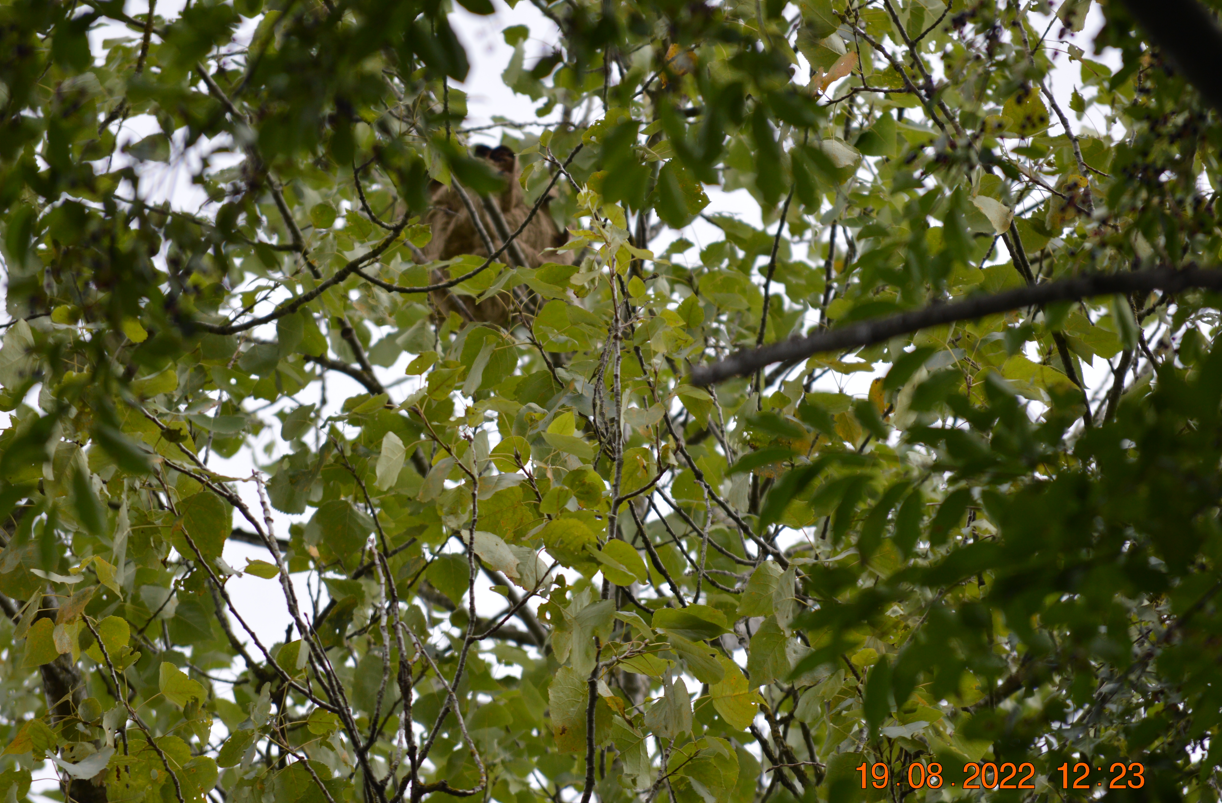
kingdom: Animalia
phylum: Arthropoda
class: Insecta
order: Hymenoptera
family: Vespidae
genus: Vespa
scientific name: Vespa velutina
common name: Asian hornet
